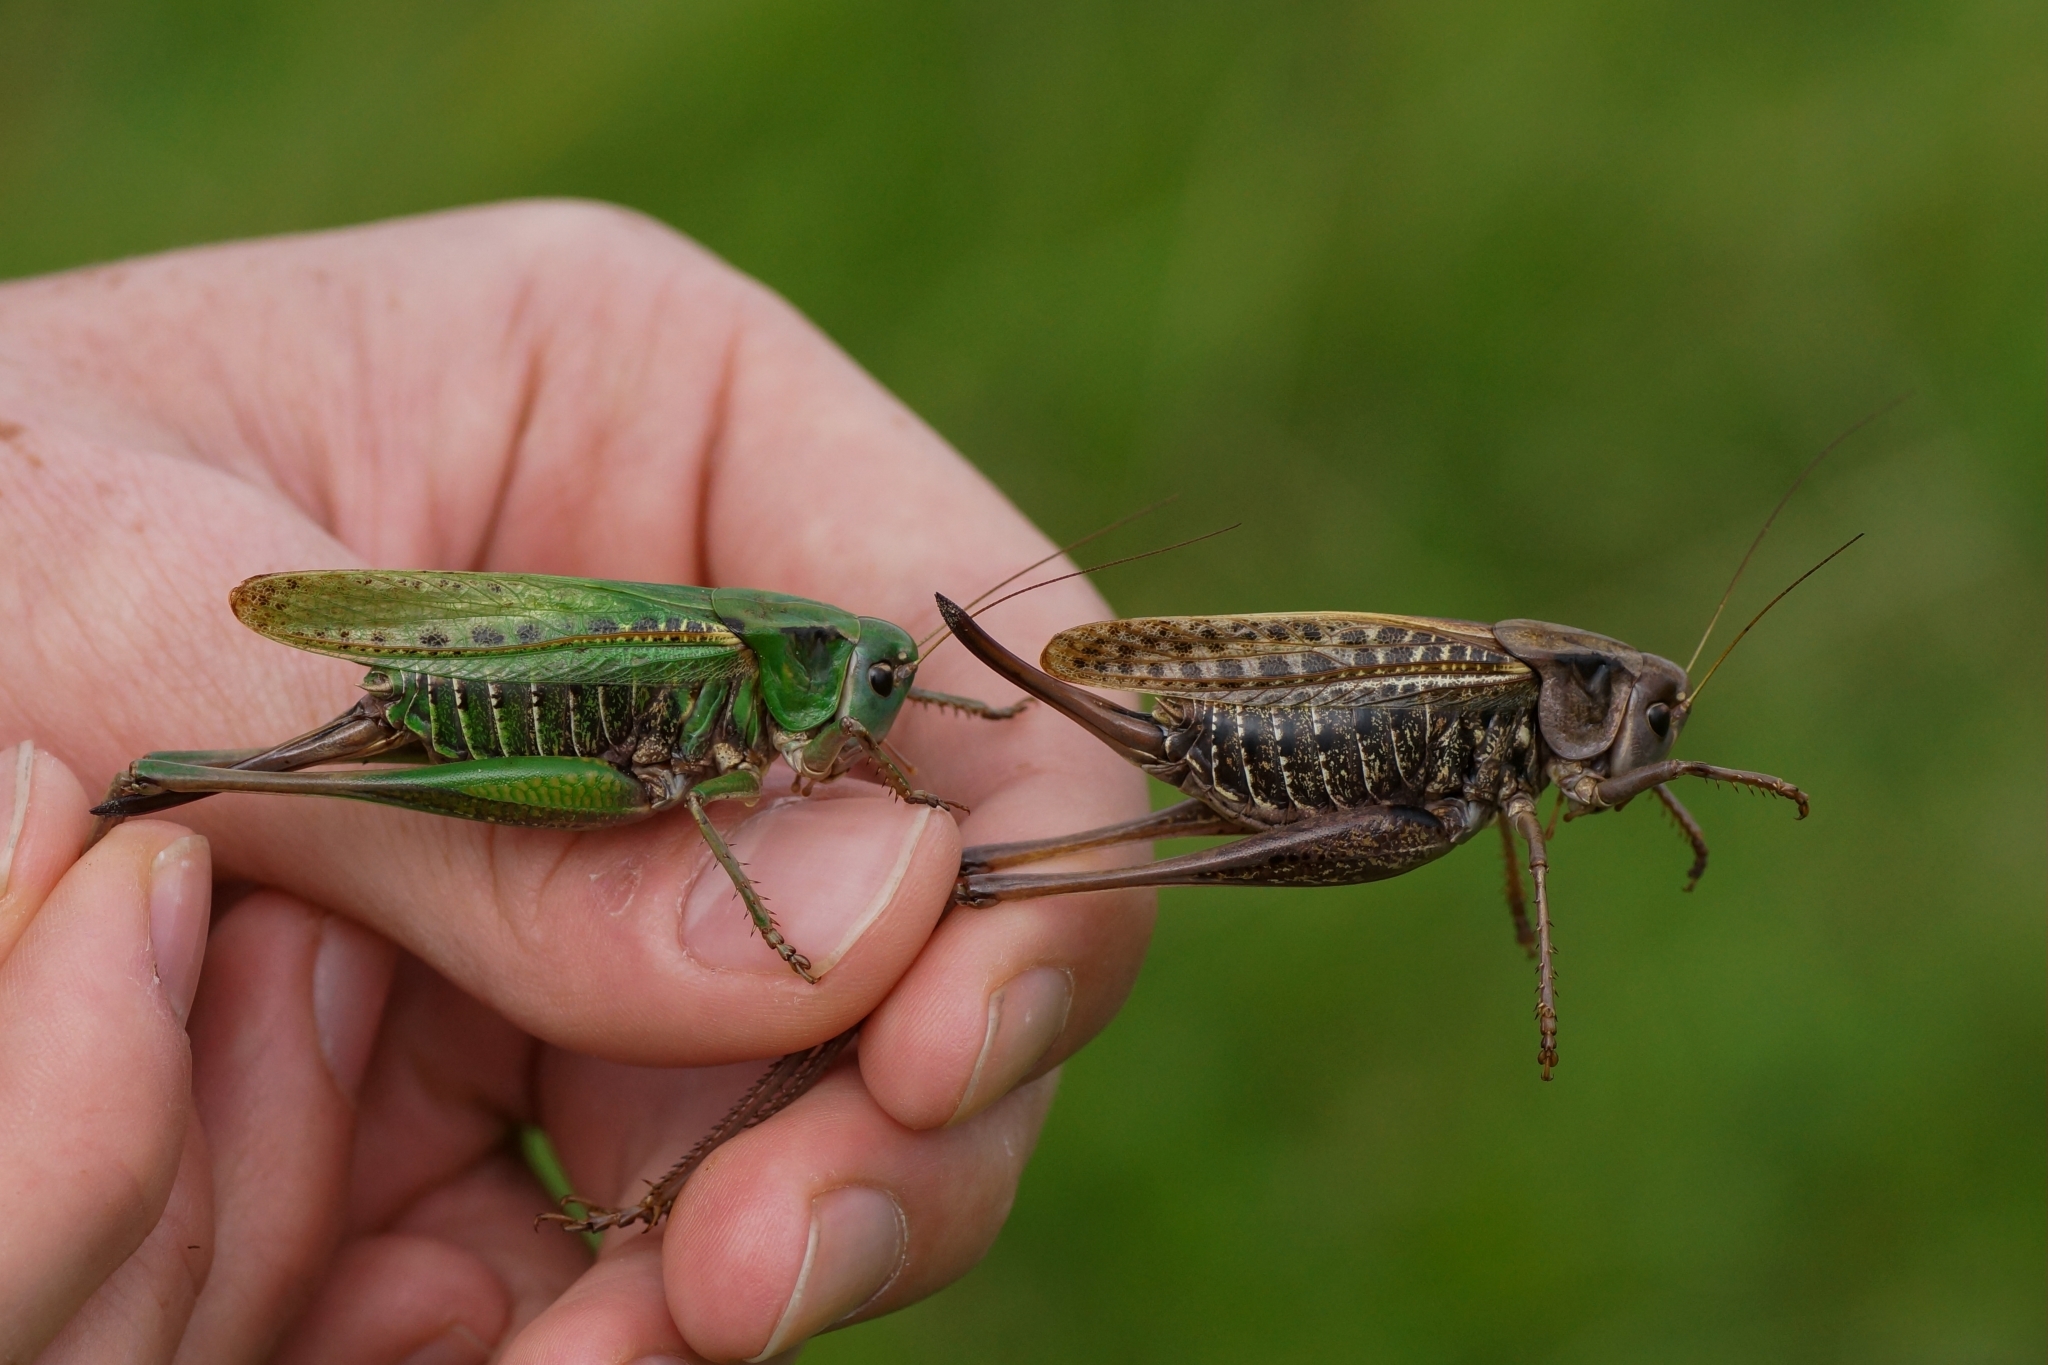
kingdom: Animalia
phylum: Arthropoda
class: Insecta
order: Orthoptera
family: Tettigoniidae
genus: Decticus
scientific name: Decticus verrucivorus
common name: Wart-biter
